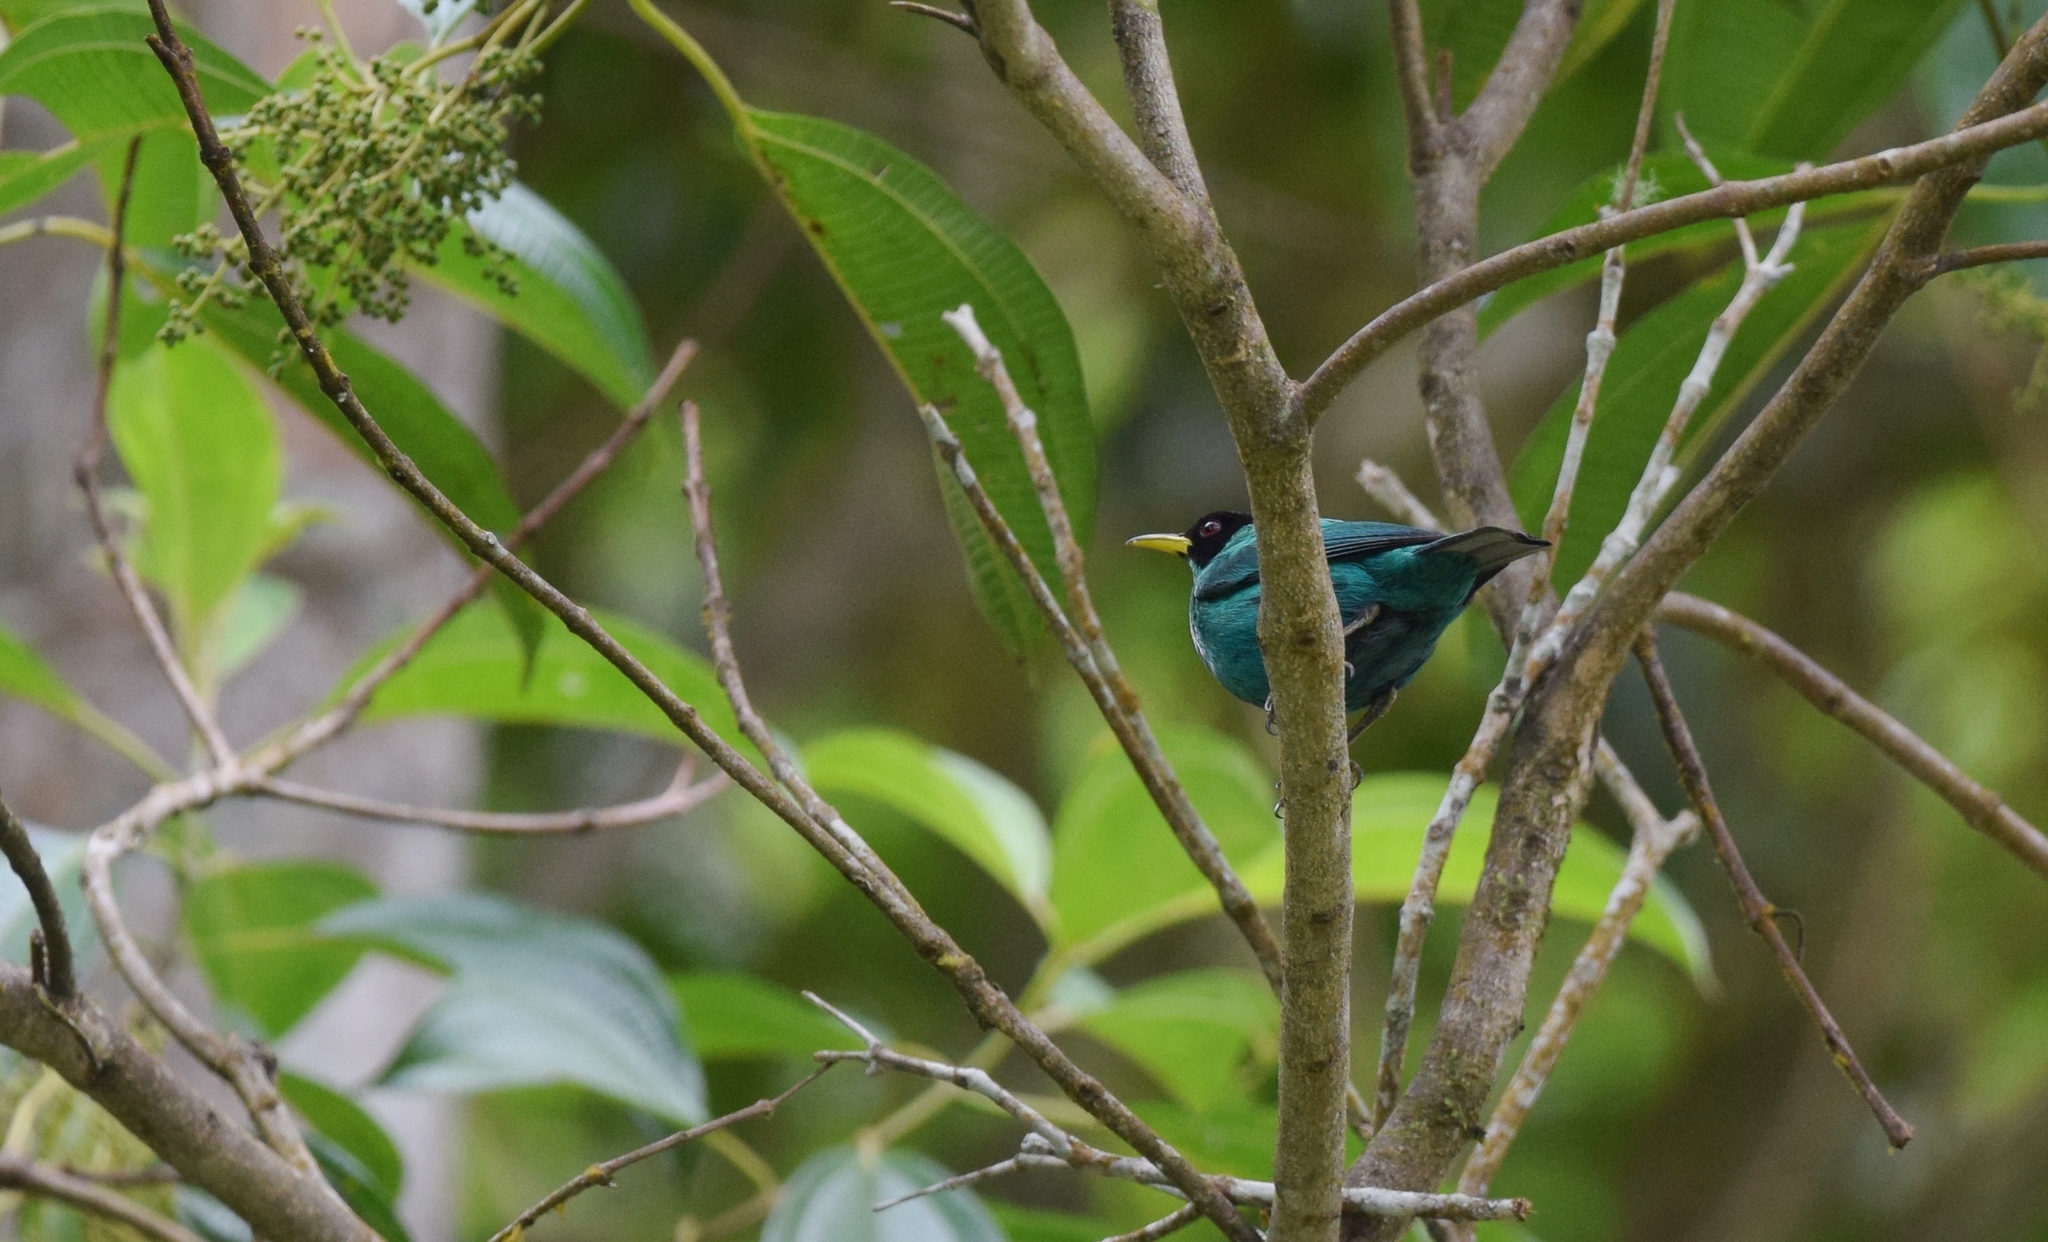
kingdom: Animalia
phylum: Chordata
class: Aves
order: Passeriformes
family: Thraupidae
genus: Chlorophanes
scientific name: Chlorophanes spiza
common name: Green honeycreeper
